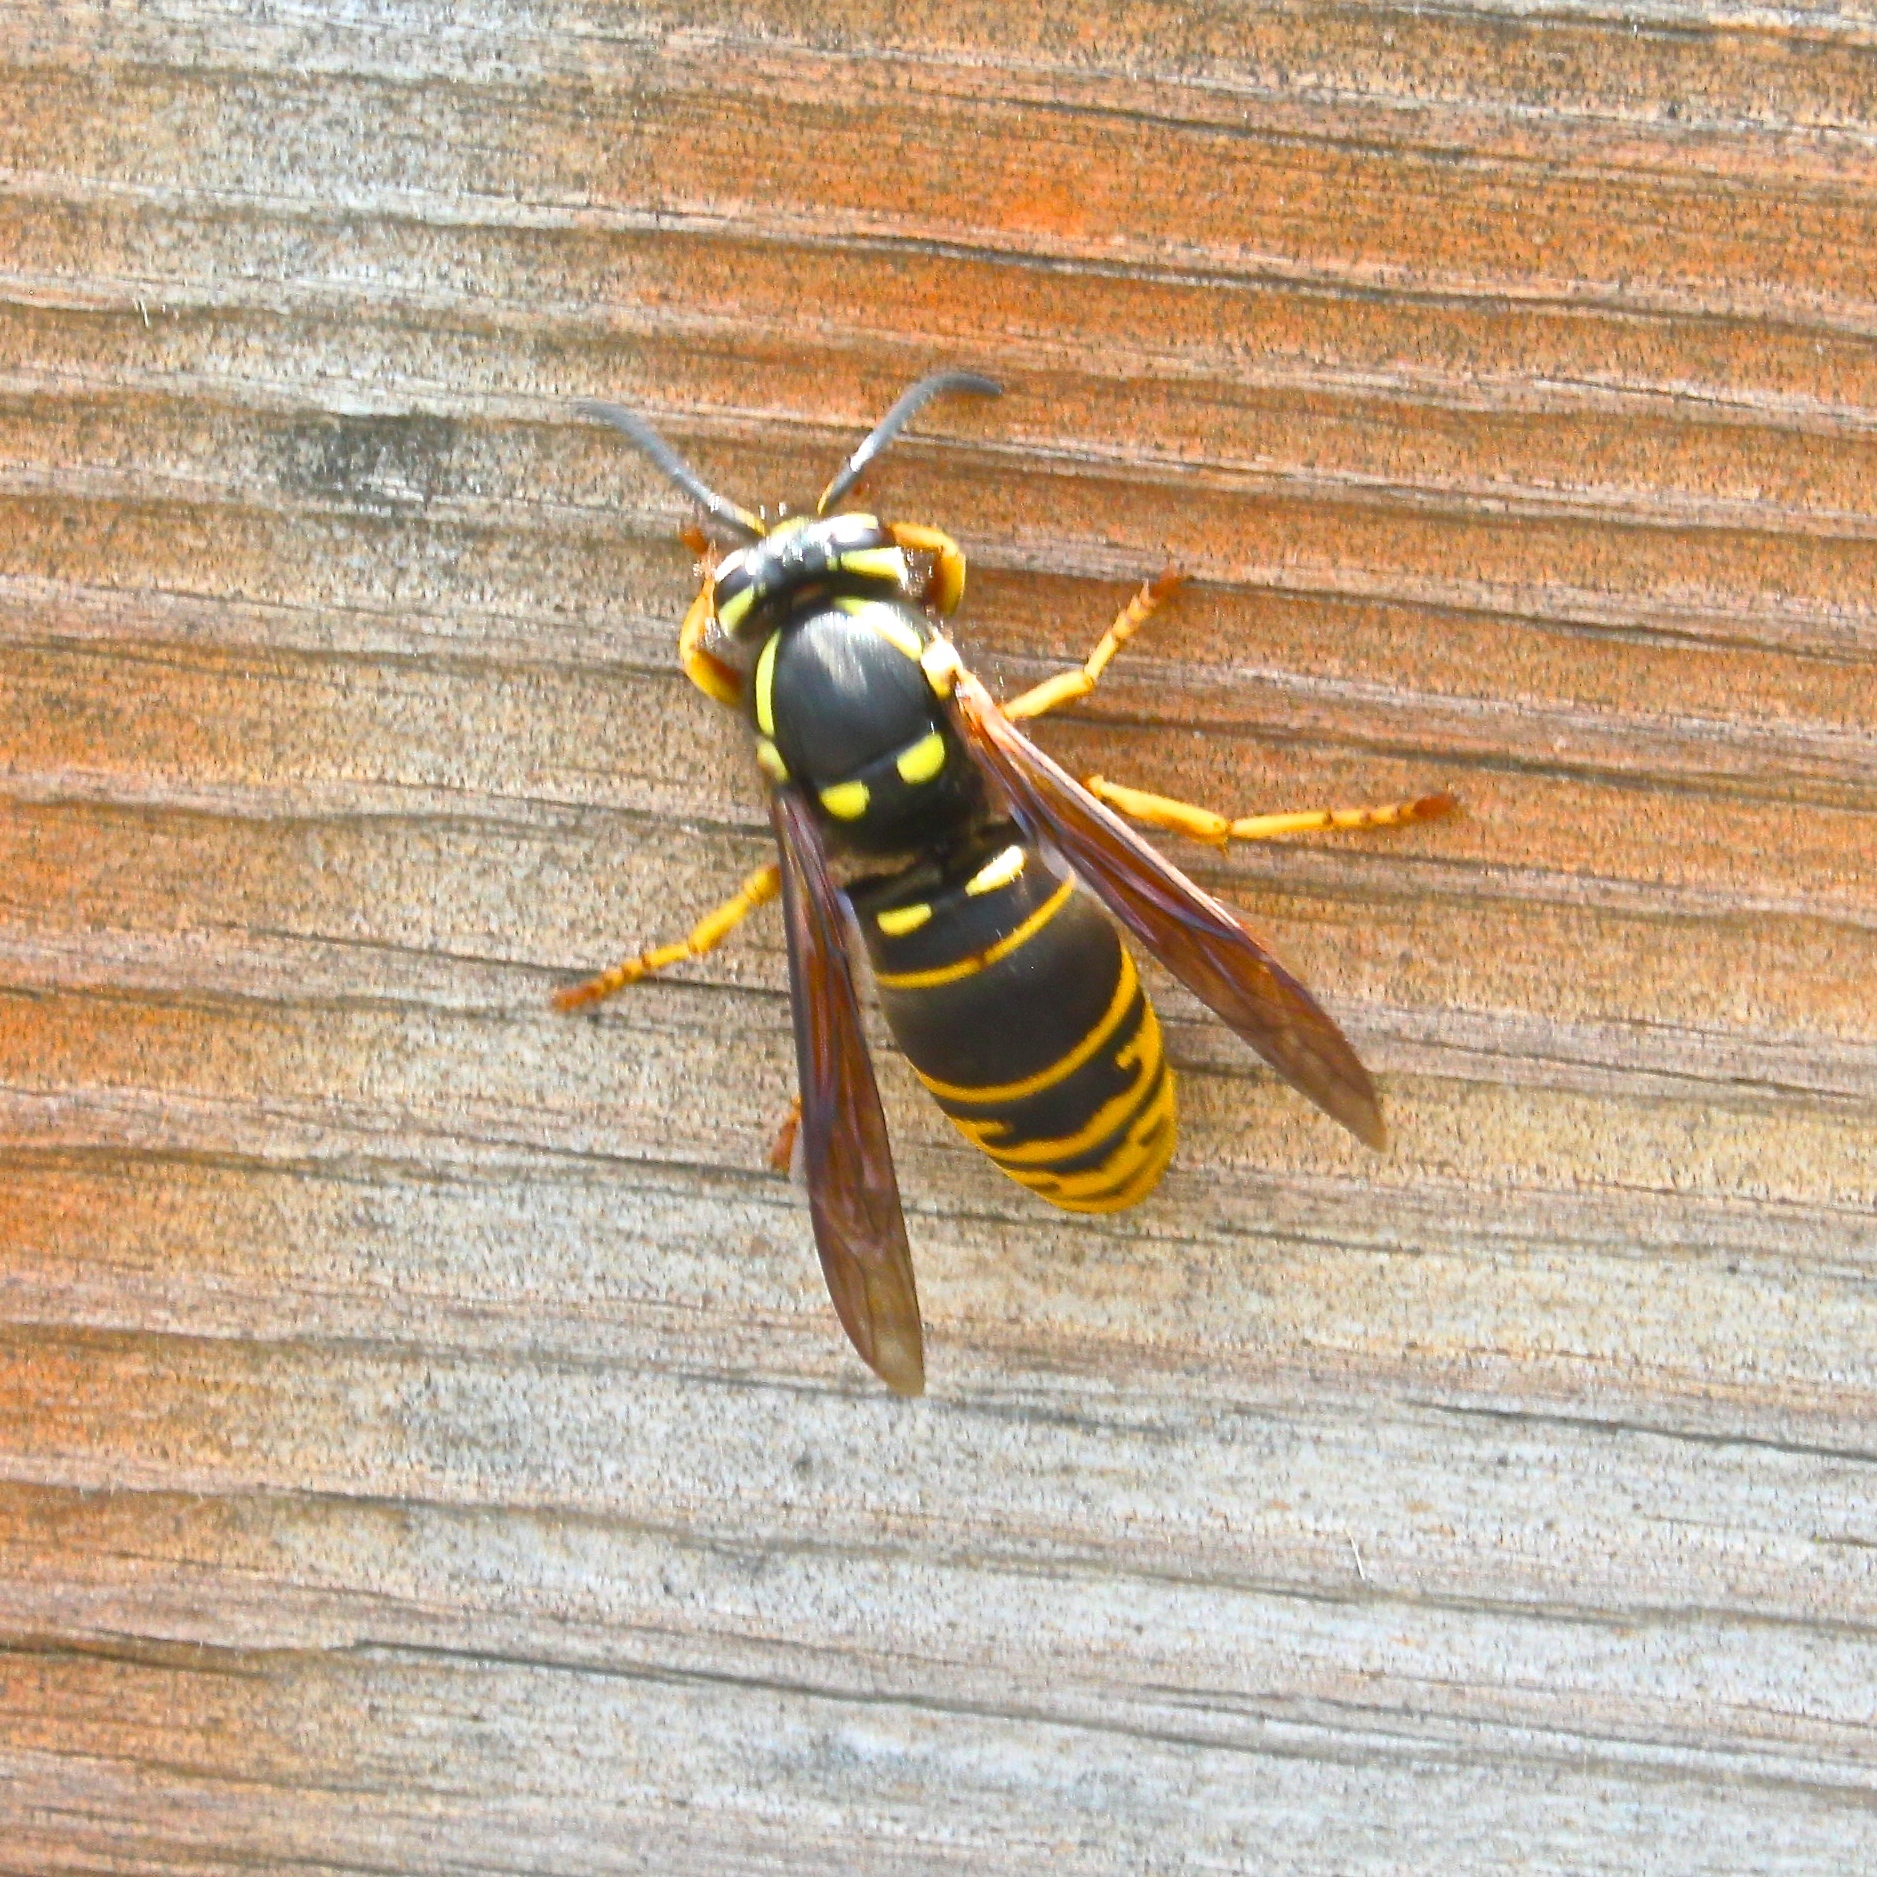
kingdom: Animalia
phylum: Arthropoda
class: Insecta
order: Hymenoptera
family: Vespidae
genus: Vespula
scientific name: Vespula vidua
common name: Widow yellowjacket
